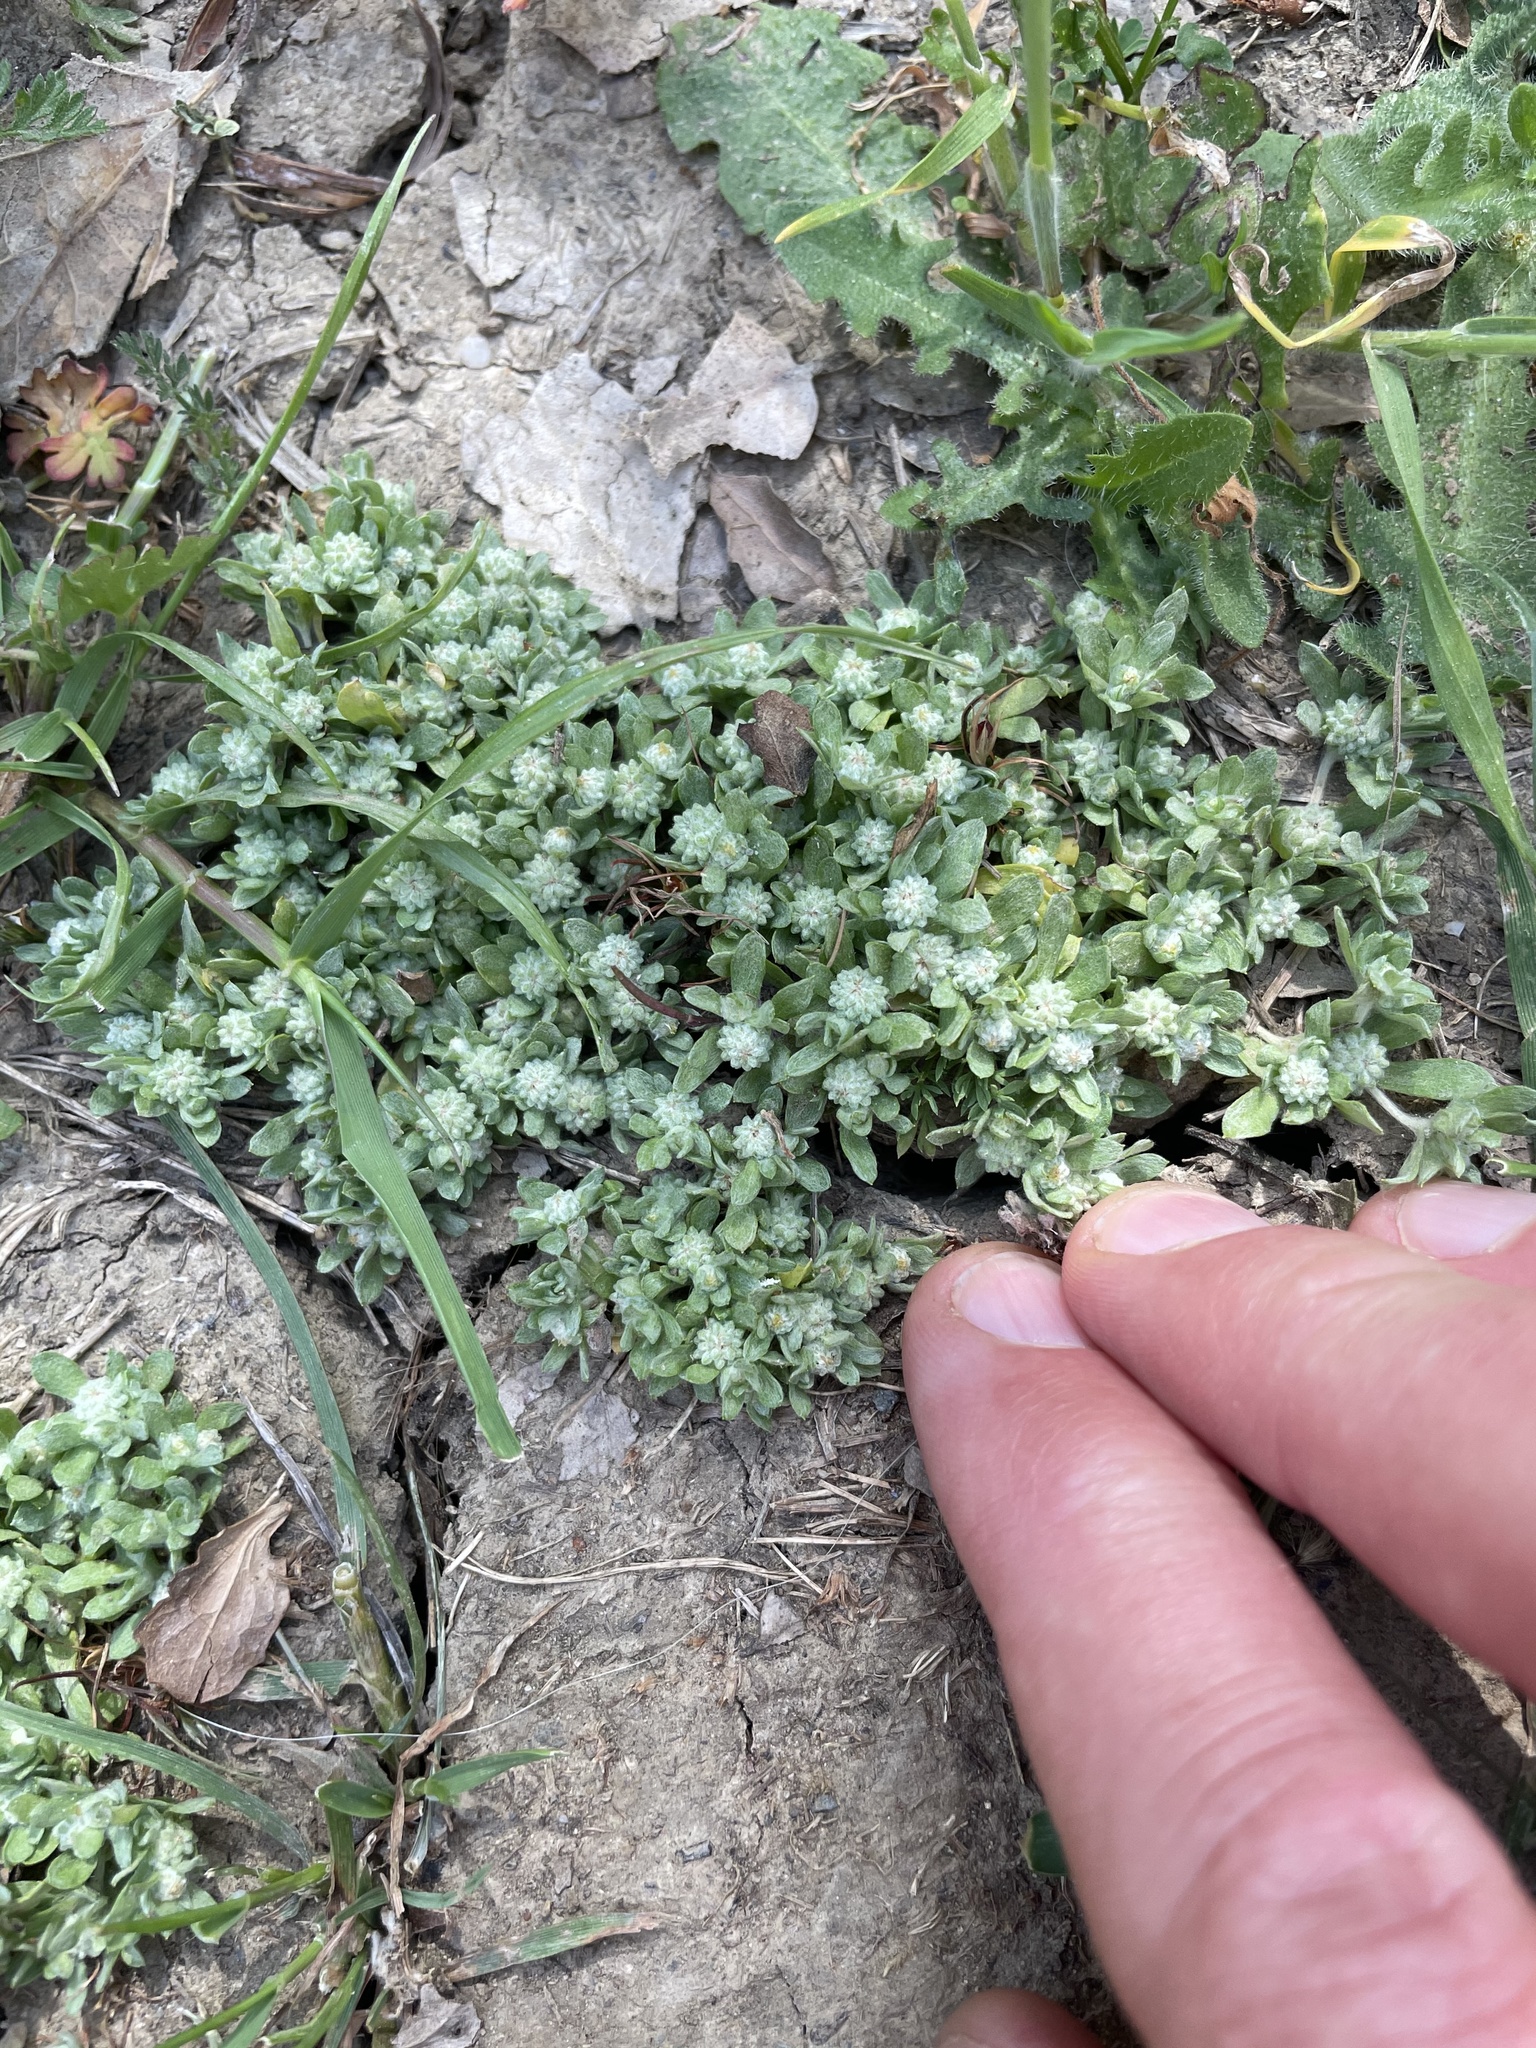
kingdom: Plantae
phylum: Tracheophyta
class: Magnoliopsida
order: Asterales
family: Asteraceae
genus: Psilocarphus
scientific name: Psilocarphus tenellus
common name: Slender woolly-marbles
